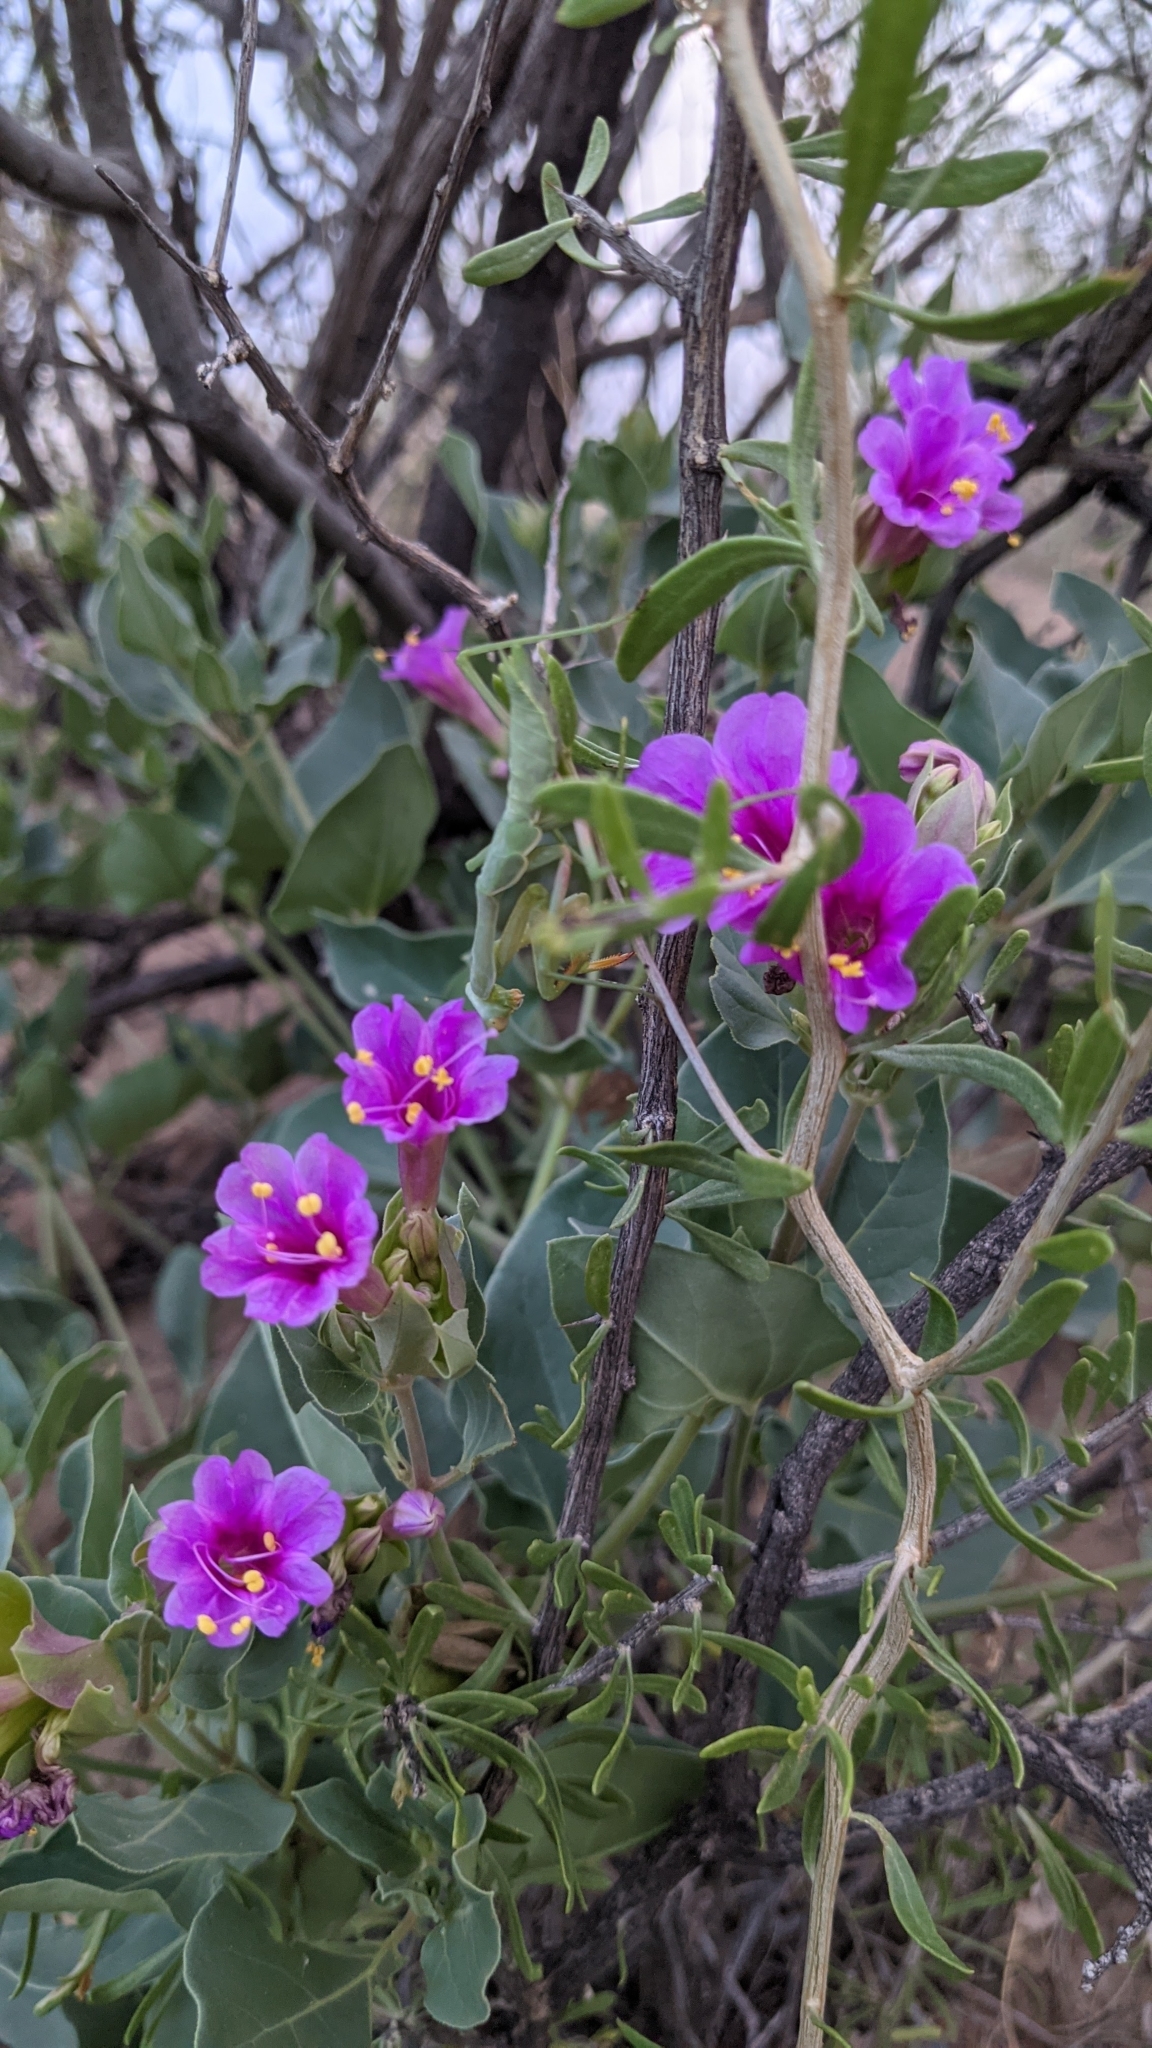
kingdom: Plantae
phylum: Tracheophyta
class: Magnoliopsida
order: Caryophyllales
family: Nyctaginaceae
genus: Mirabilis
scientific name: Mirabilis multiflora
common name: Froebel's four-o'clock
